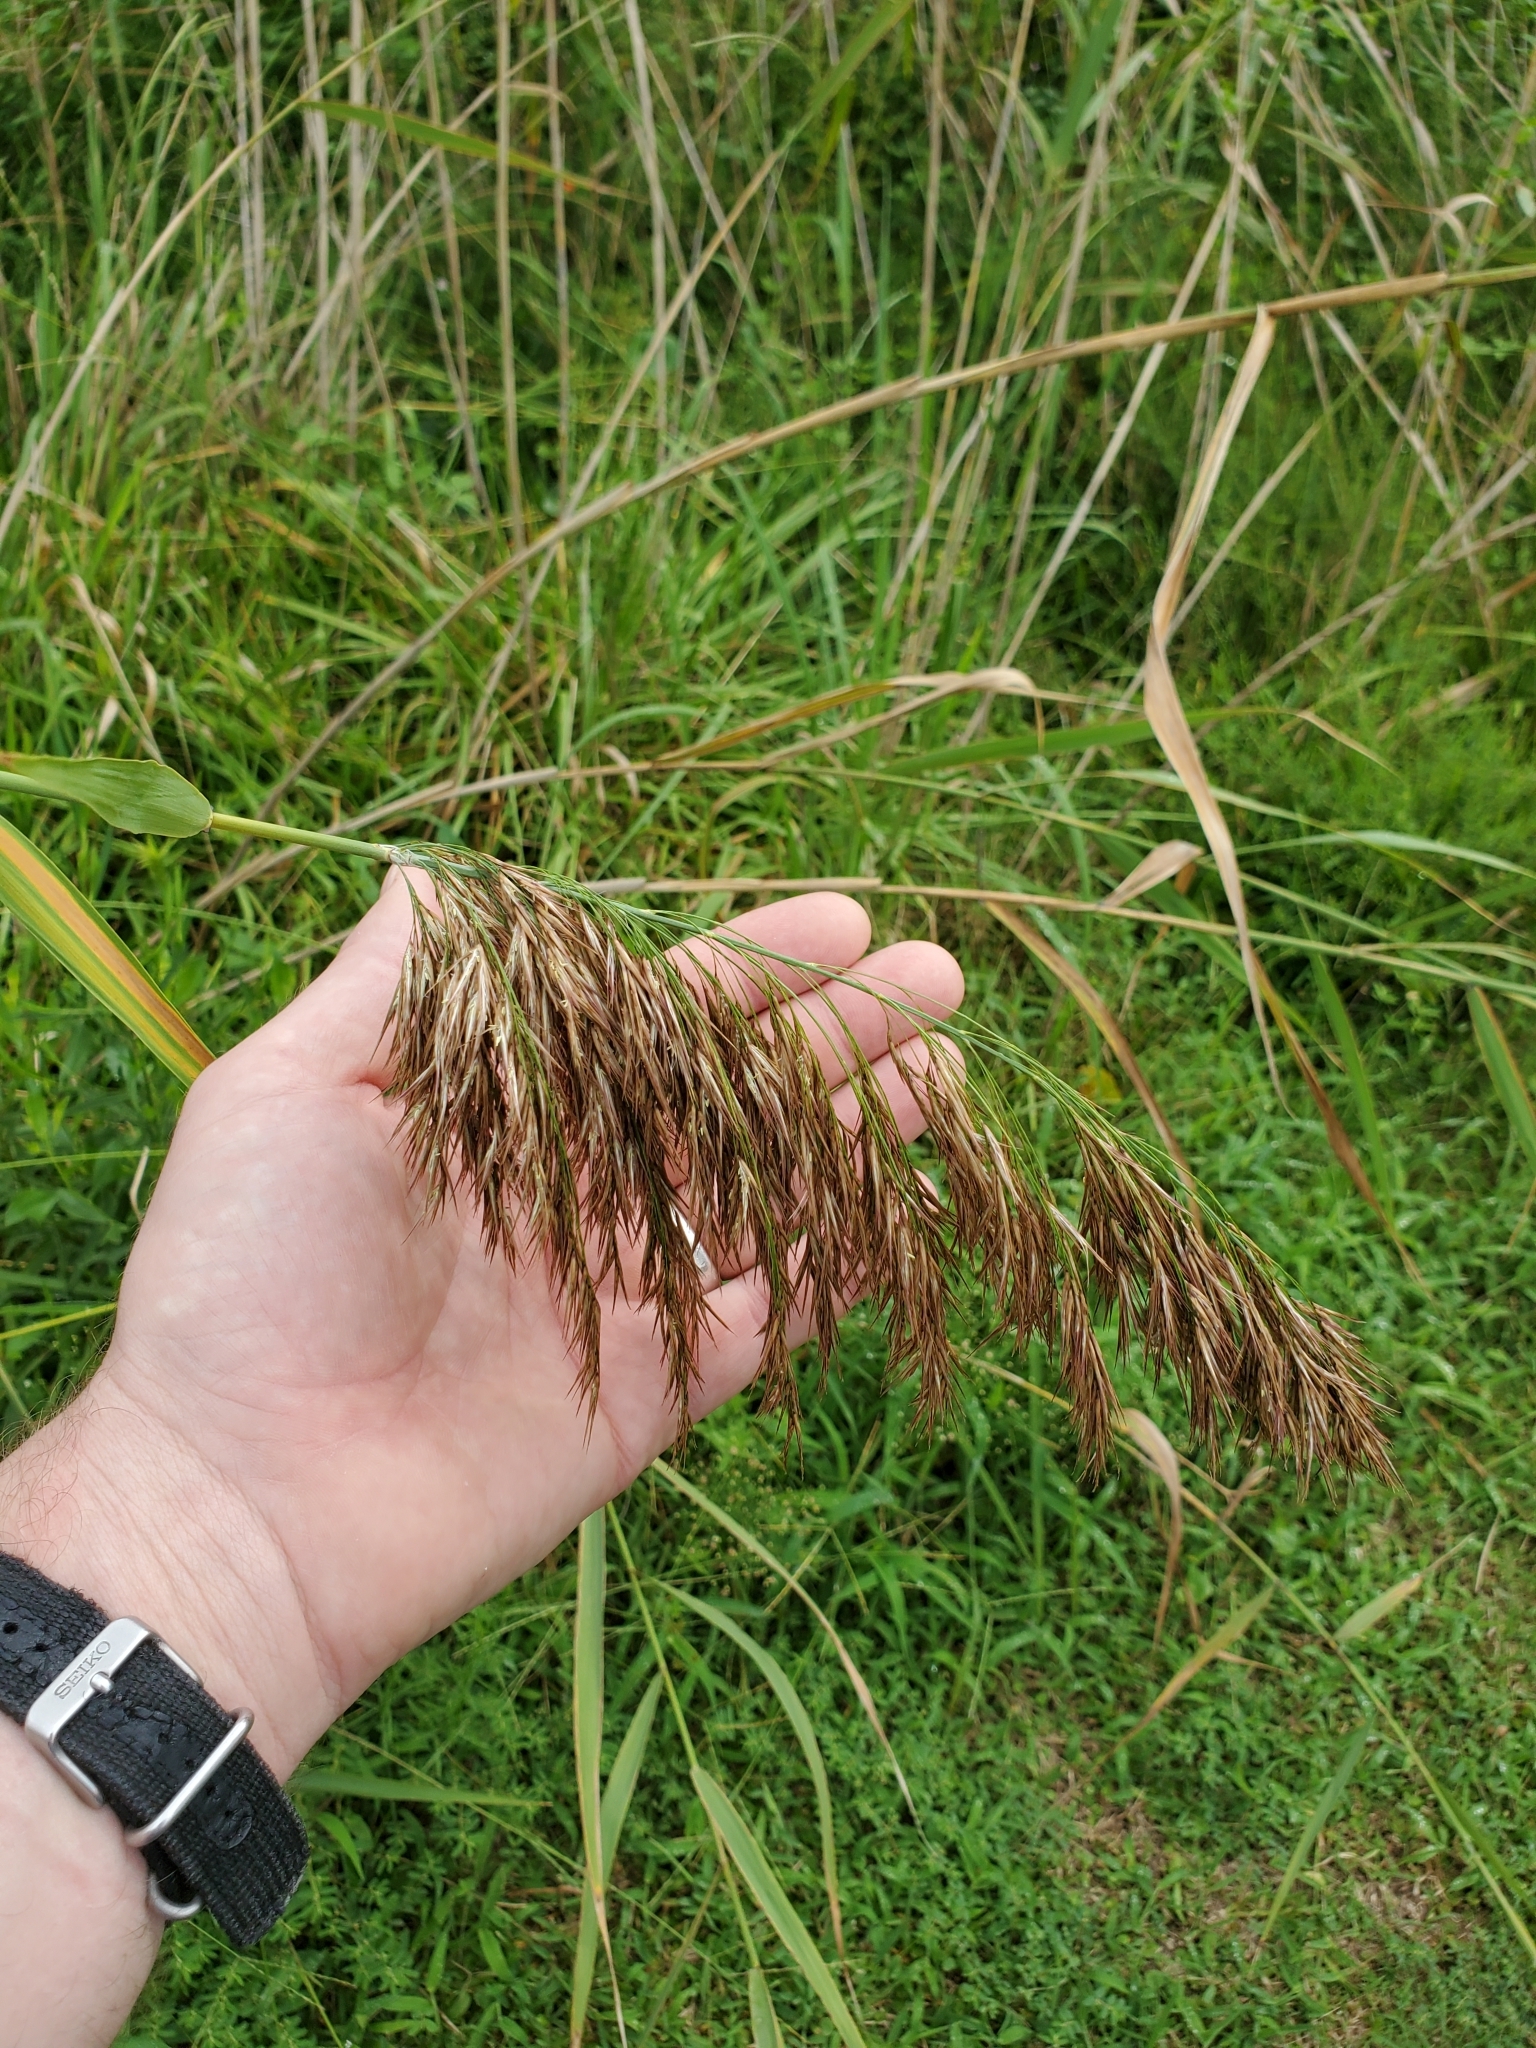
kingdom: Plantae
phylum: Tracheophyta
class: Liliopsida
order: Poales
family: Poaceae
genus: Phragmites
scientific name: Phragmites australis
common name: Common reed
